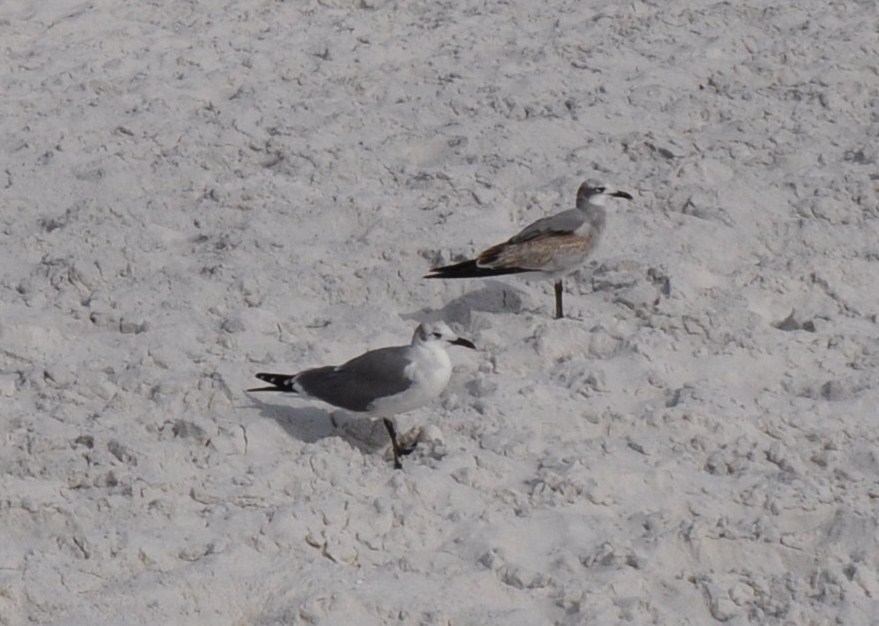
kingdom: Animalia
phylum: Chordata
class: Aves
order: Charadriiformes
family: Laridae
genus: Leucophaeus
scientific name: Leucophaeus atricilla
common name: Laughing gull
